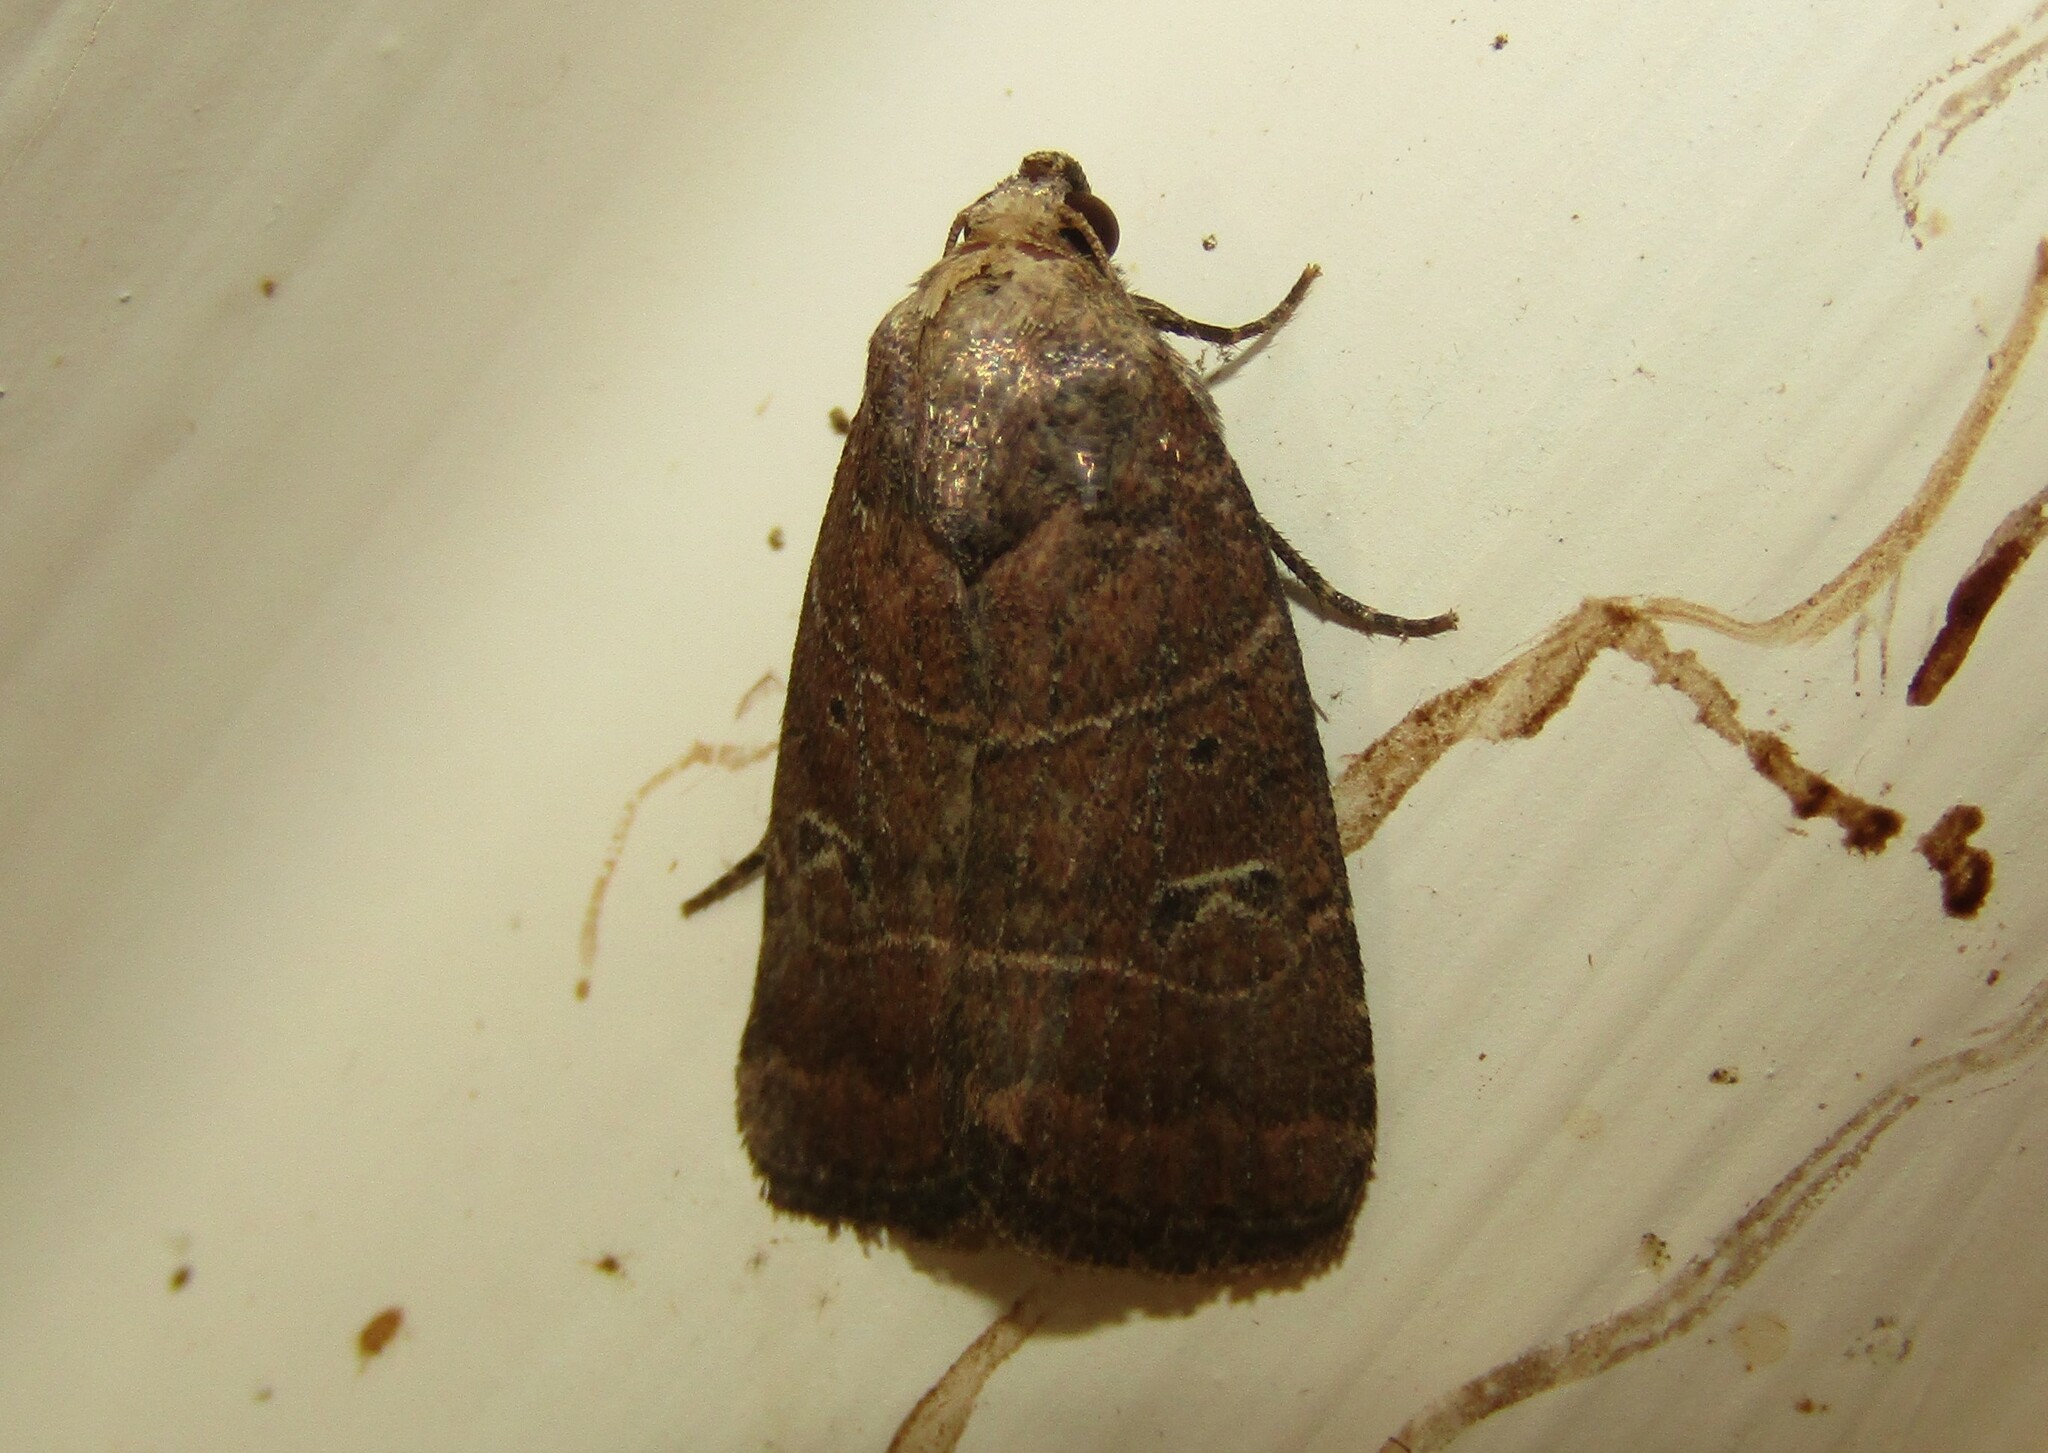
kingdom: Animalia
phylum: Arthropoda
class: Insecta
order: Lepidoptera
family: Noctuidae
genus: Elaphria
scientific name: Elaphria grata
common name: Grateful midget moth
